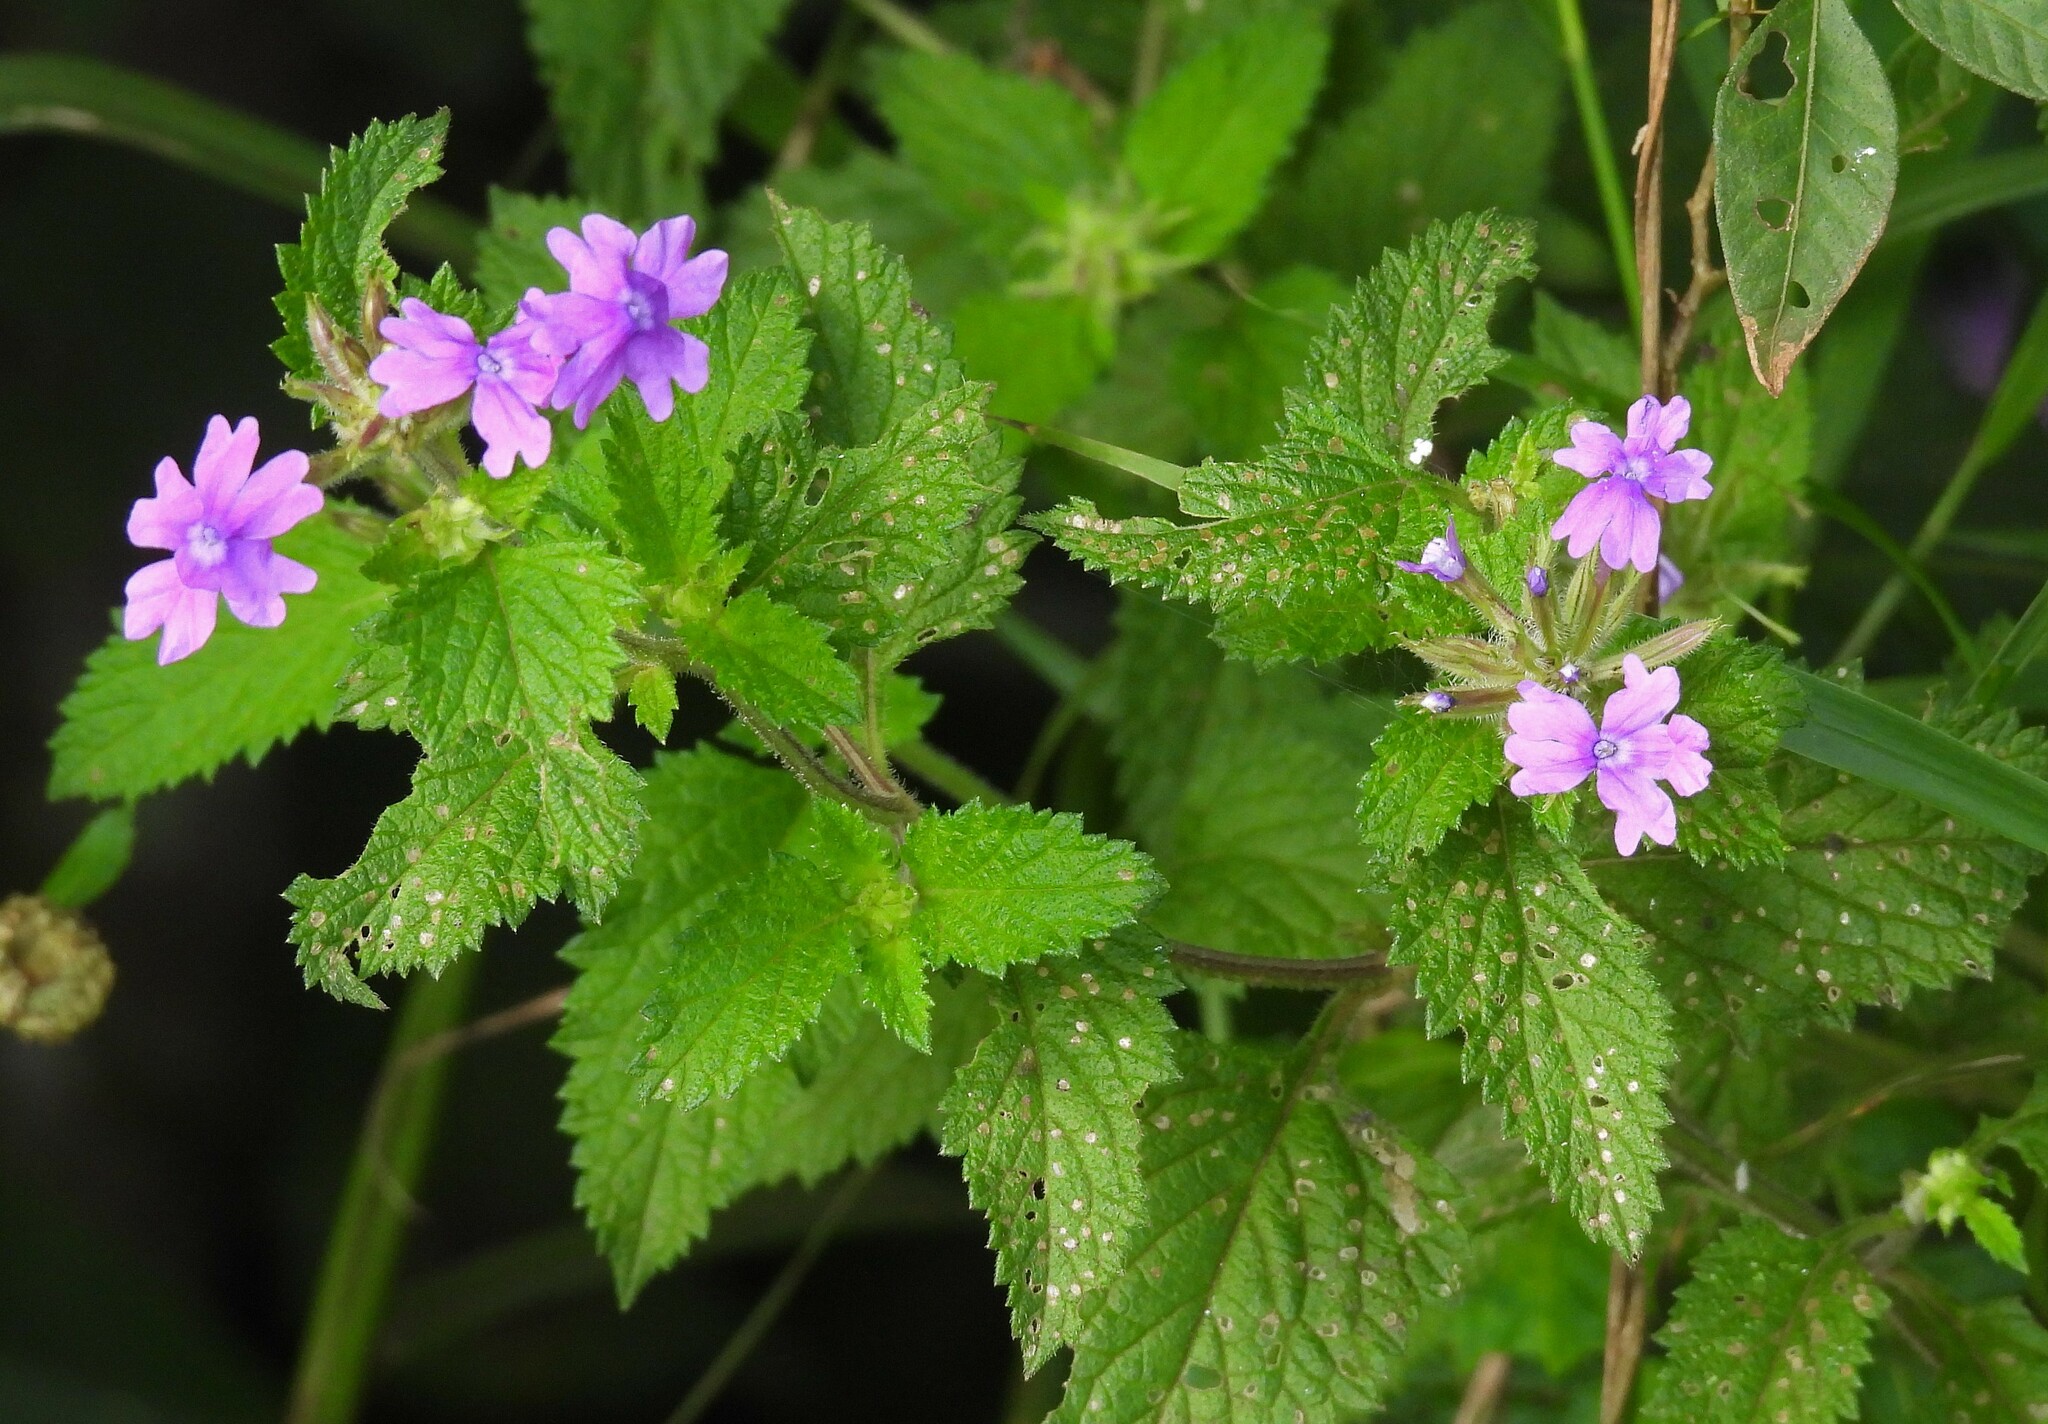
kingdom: Plantae
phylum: Tracheophyta
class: Magnoliopsida
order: Lamiales
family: Verbenaceae
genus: Verbena
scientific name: Verbena phlogiflora
